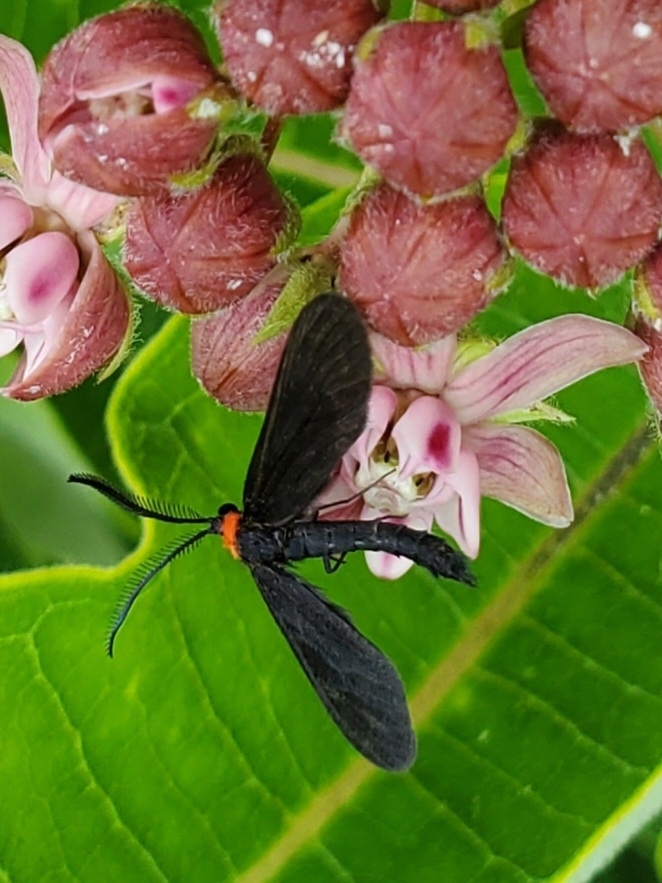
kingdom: Animalia
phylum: Arthropoda
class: Insecta
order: Lepidoptera
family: Zygaenidae
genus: Harrisina
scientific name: Harrisina americana
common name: Grapeleaf skeletonizer moth
